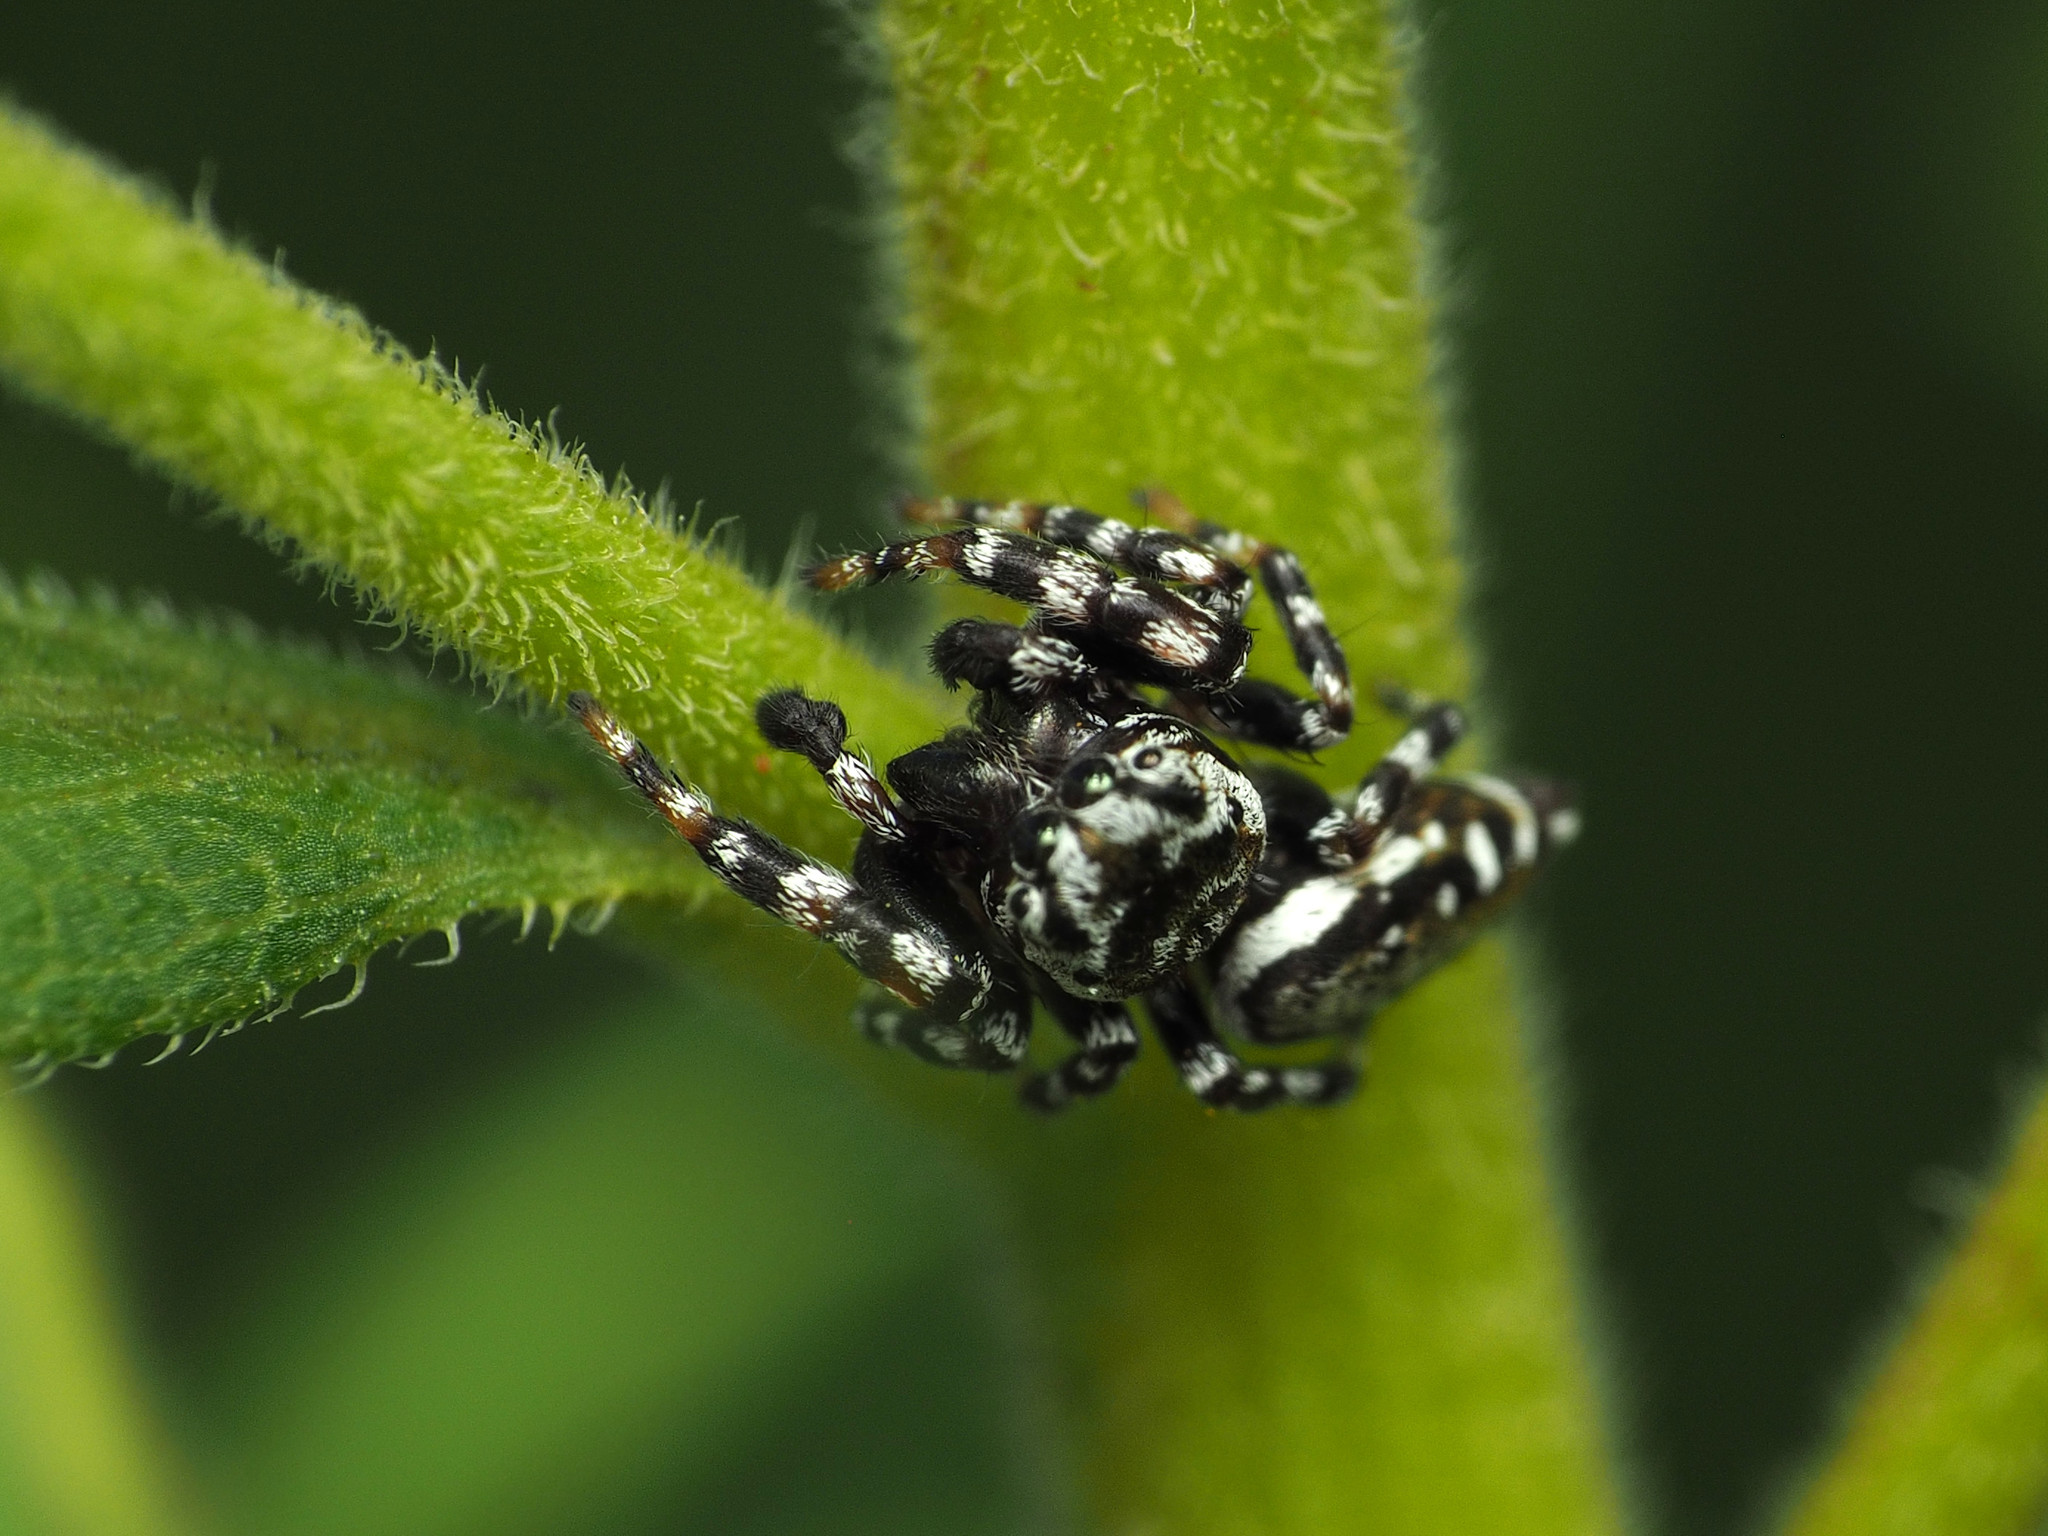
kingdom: Animalia
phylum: Arthropoda
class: Arachnida
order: Araneae
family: Salticidae
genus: Pelegrina
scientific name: Pelegrina galathea
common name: Jumping spiders
